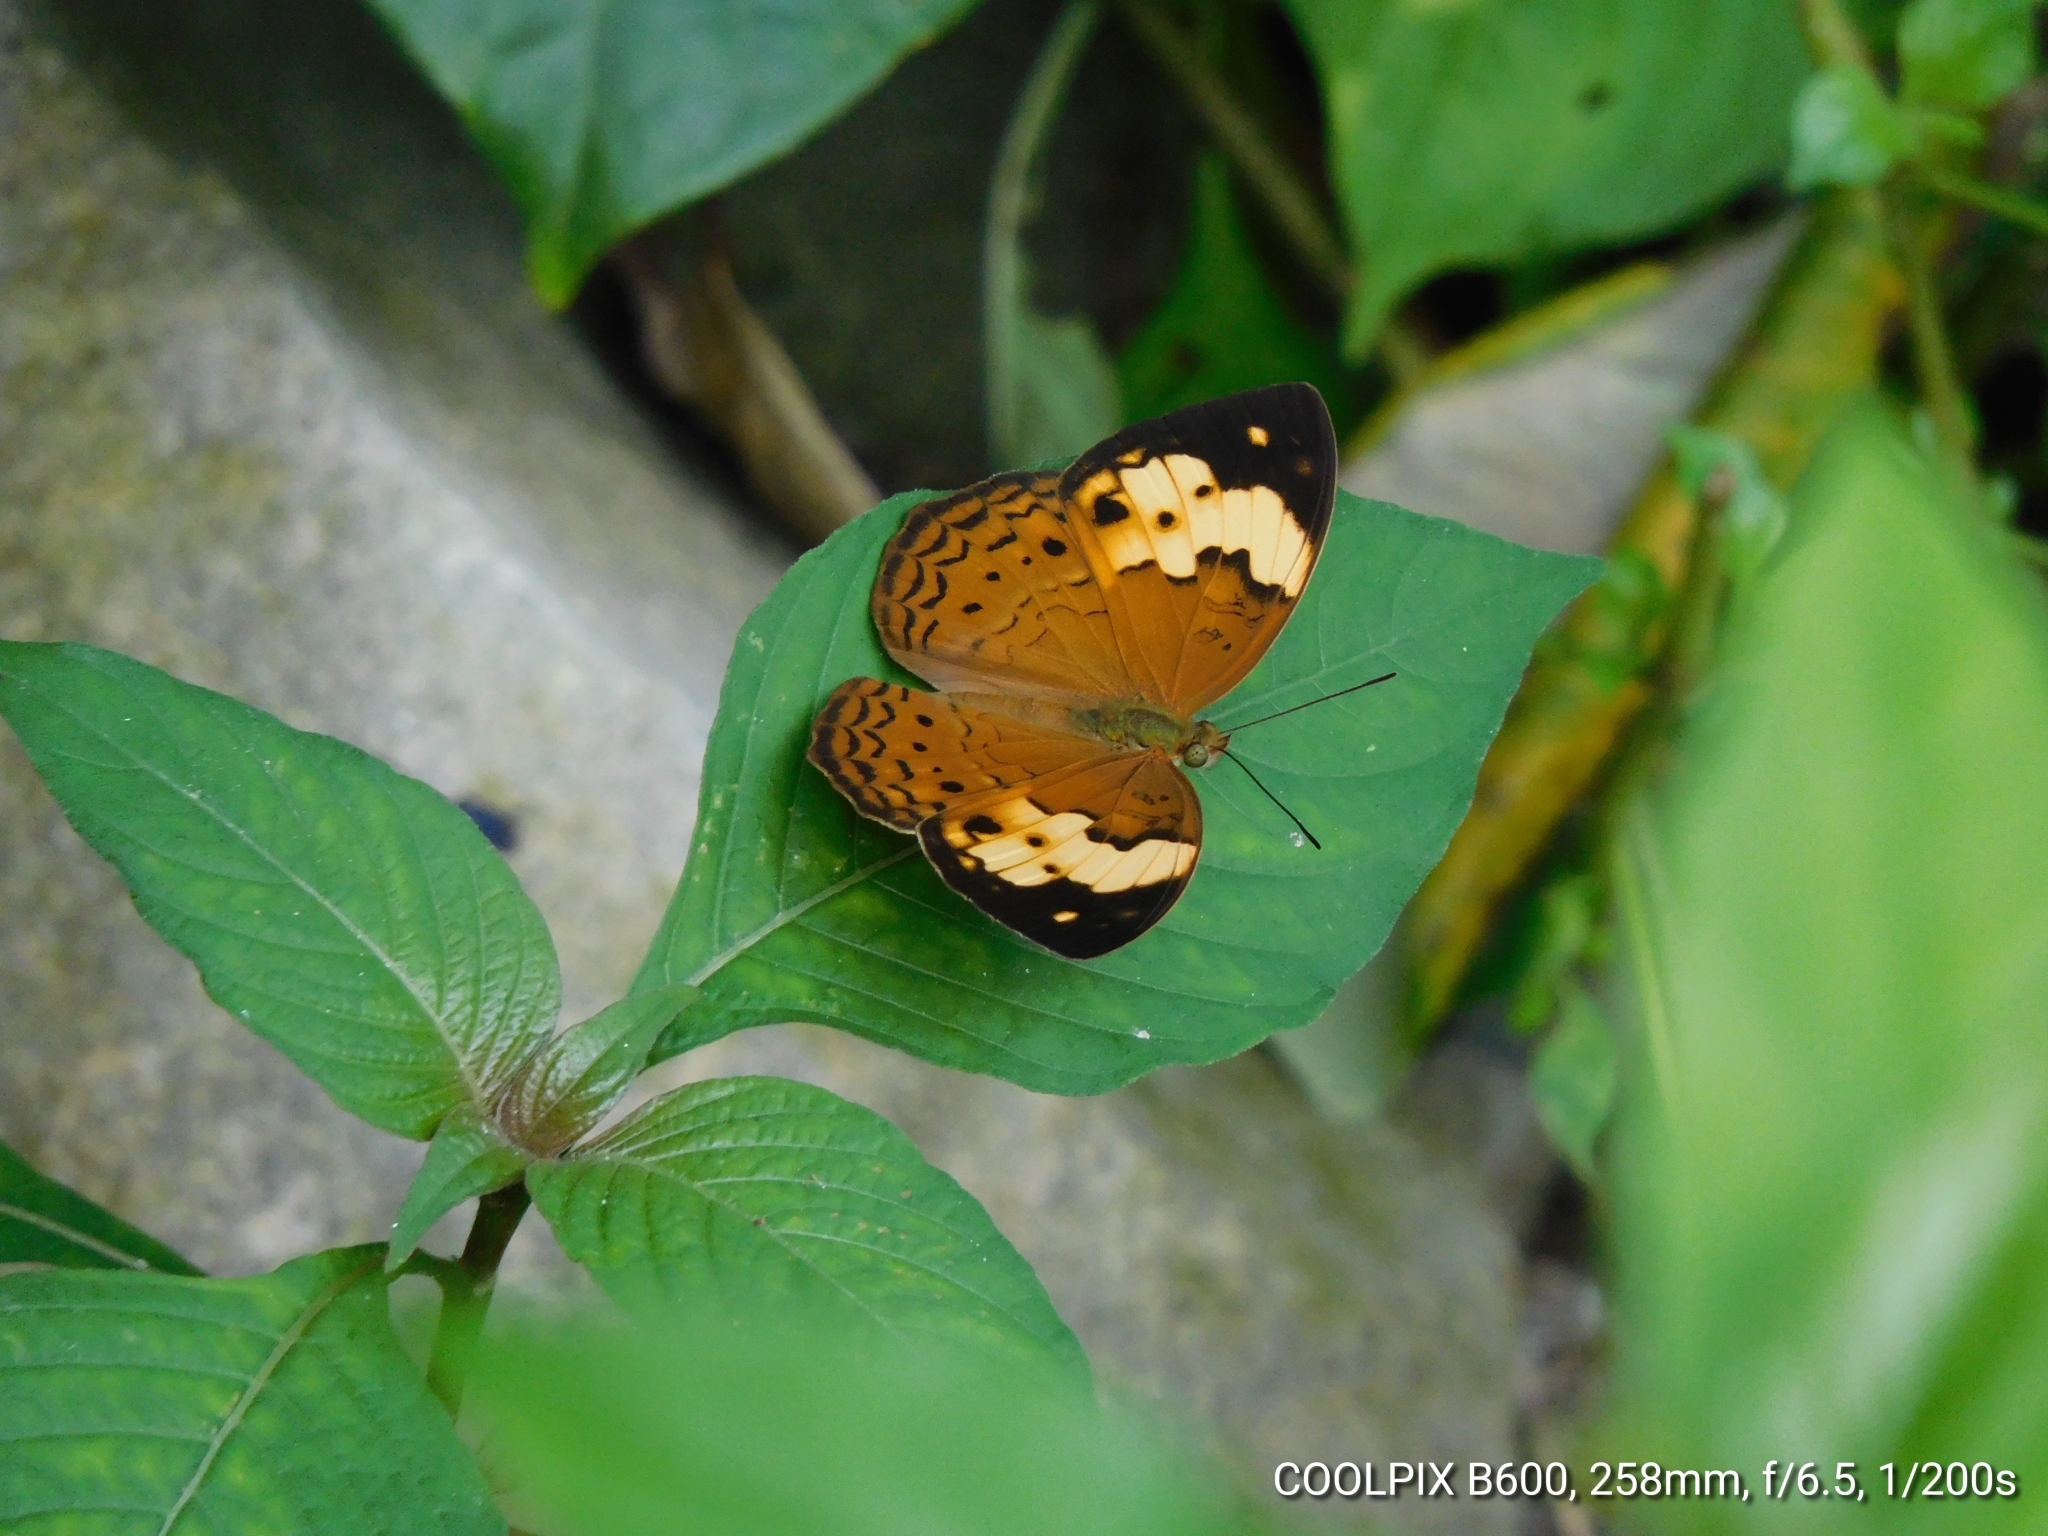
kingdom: Animalia
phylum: Arthropoda
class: Insecta
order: Lepidoptera
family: Nymphalidae
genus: Cupha
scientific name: Cupha erymanthis
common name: Rustic
